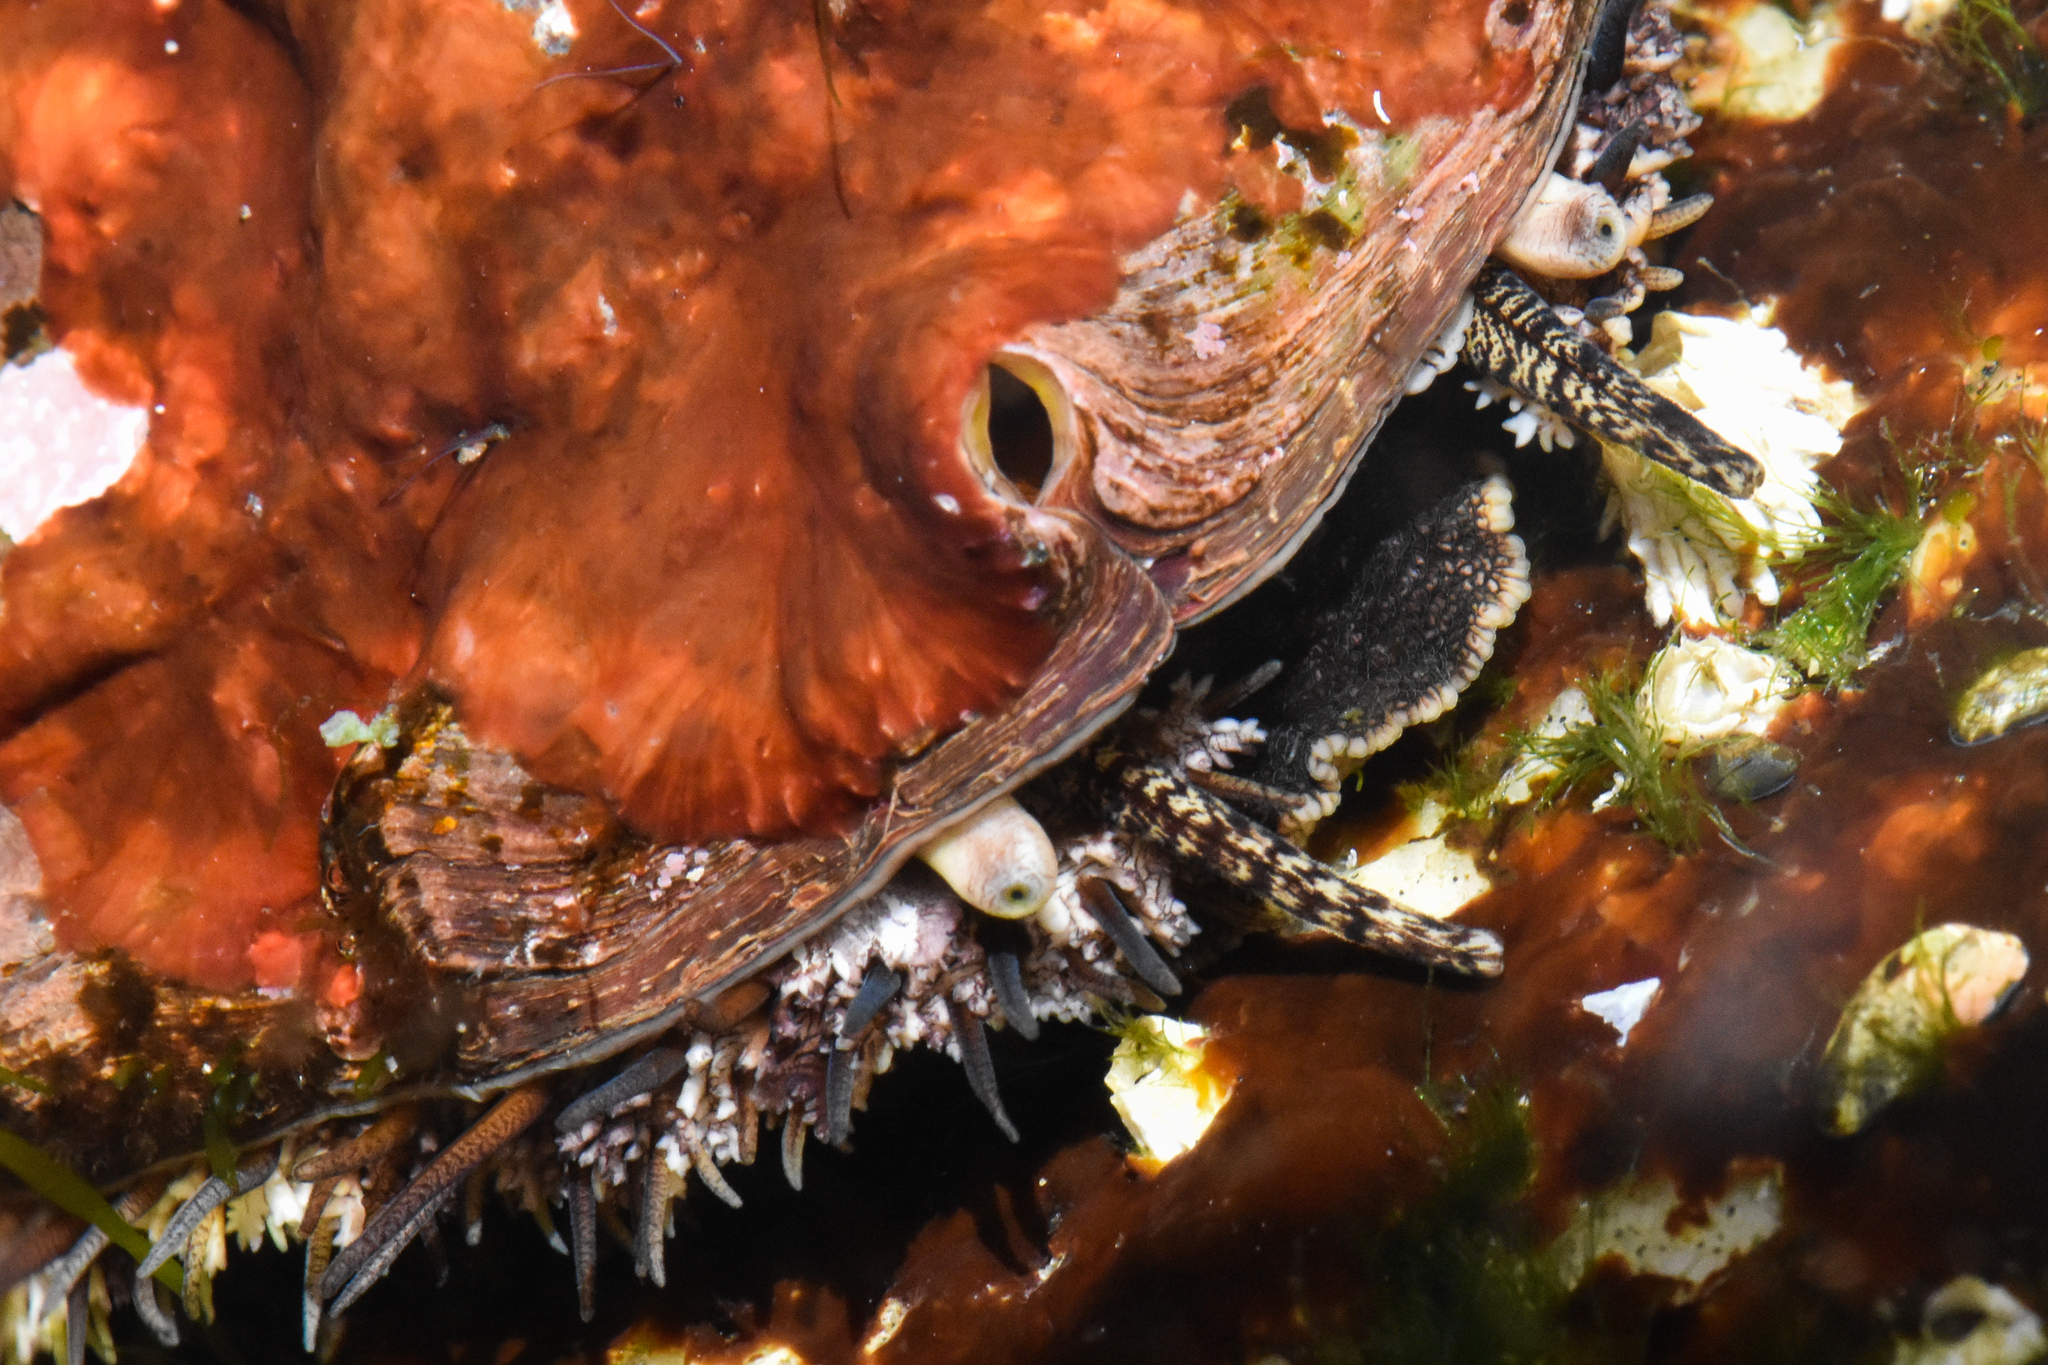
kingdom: Animalia
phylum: Mollusca
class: Gastropoda
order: Lepetellida
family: Haliotidae
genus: Haliotis
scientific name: Haliotis kamtschatkana
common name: Pinto abalone
